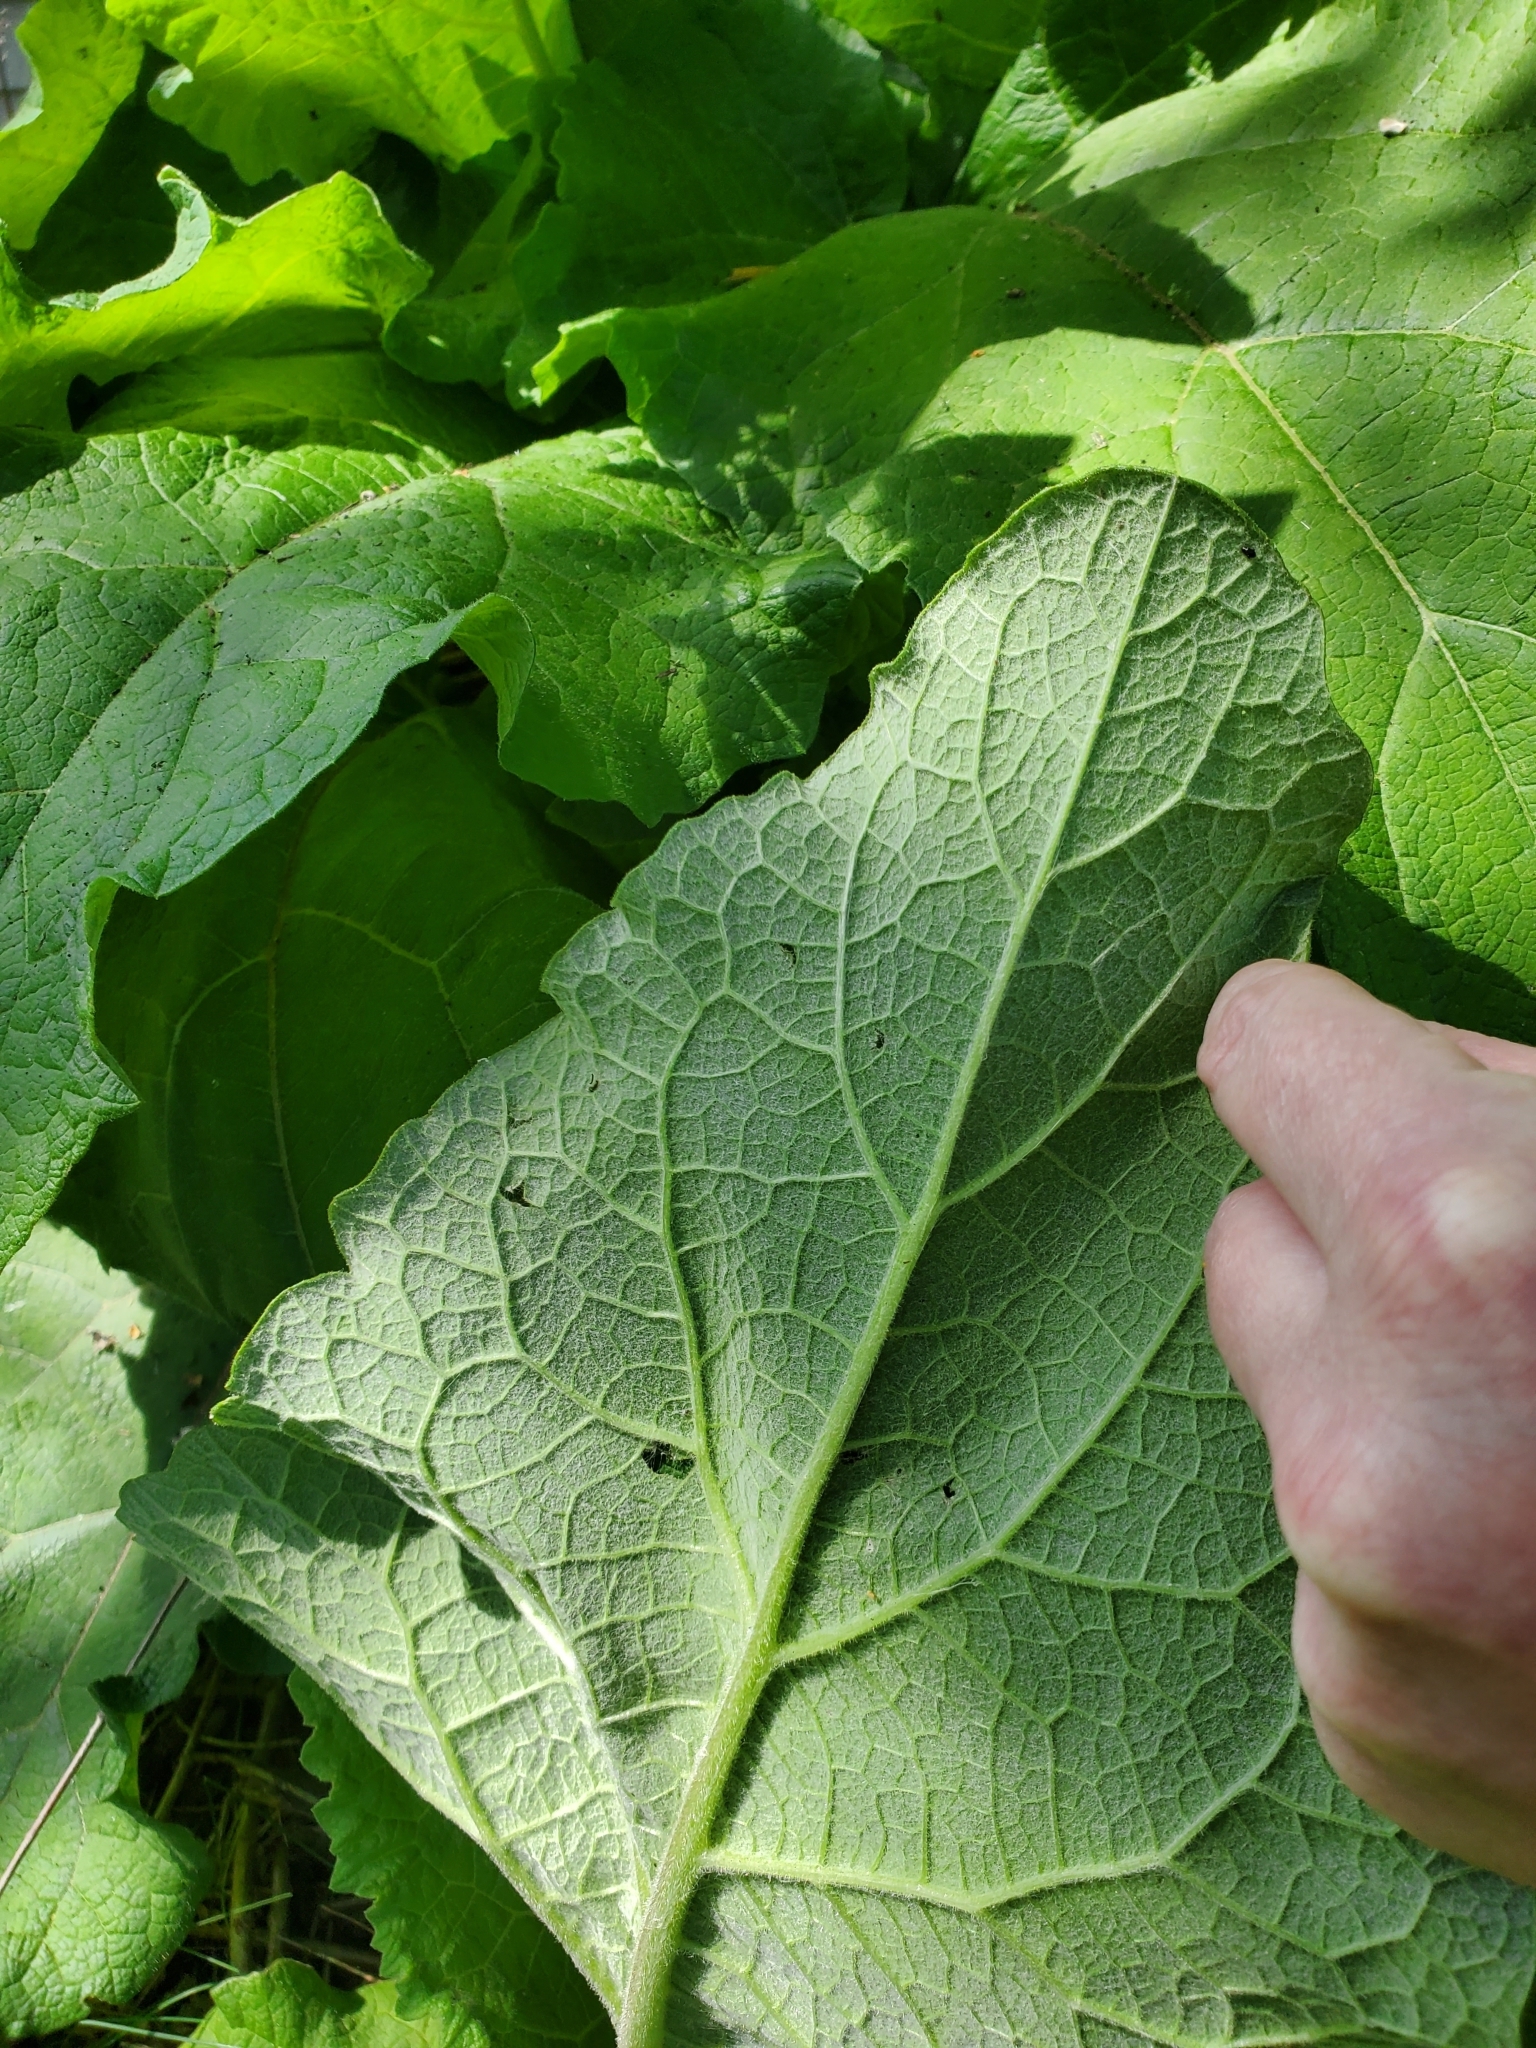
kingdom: Plantae
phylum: Tracheophyta
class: Magnoliopsida
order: Asterales
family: Asteraceae
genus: Arctium
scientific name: Arctium
